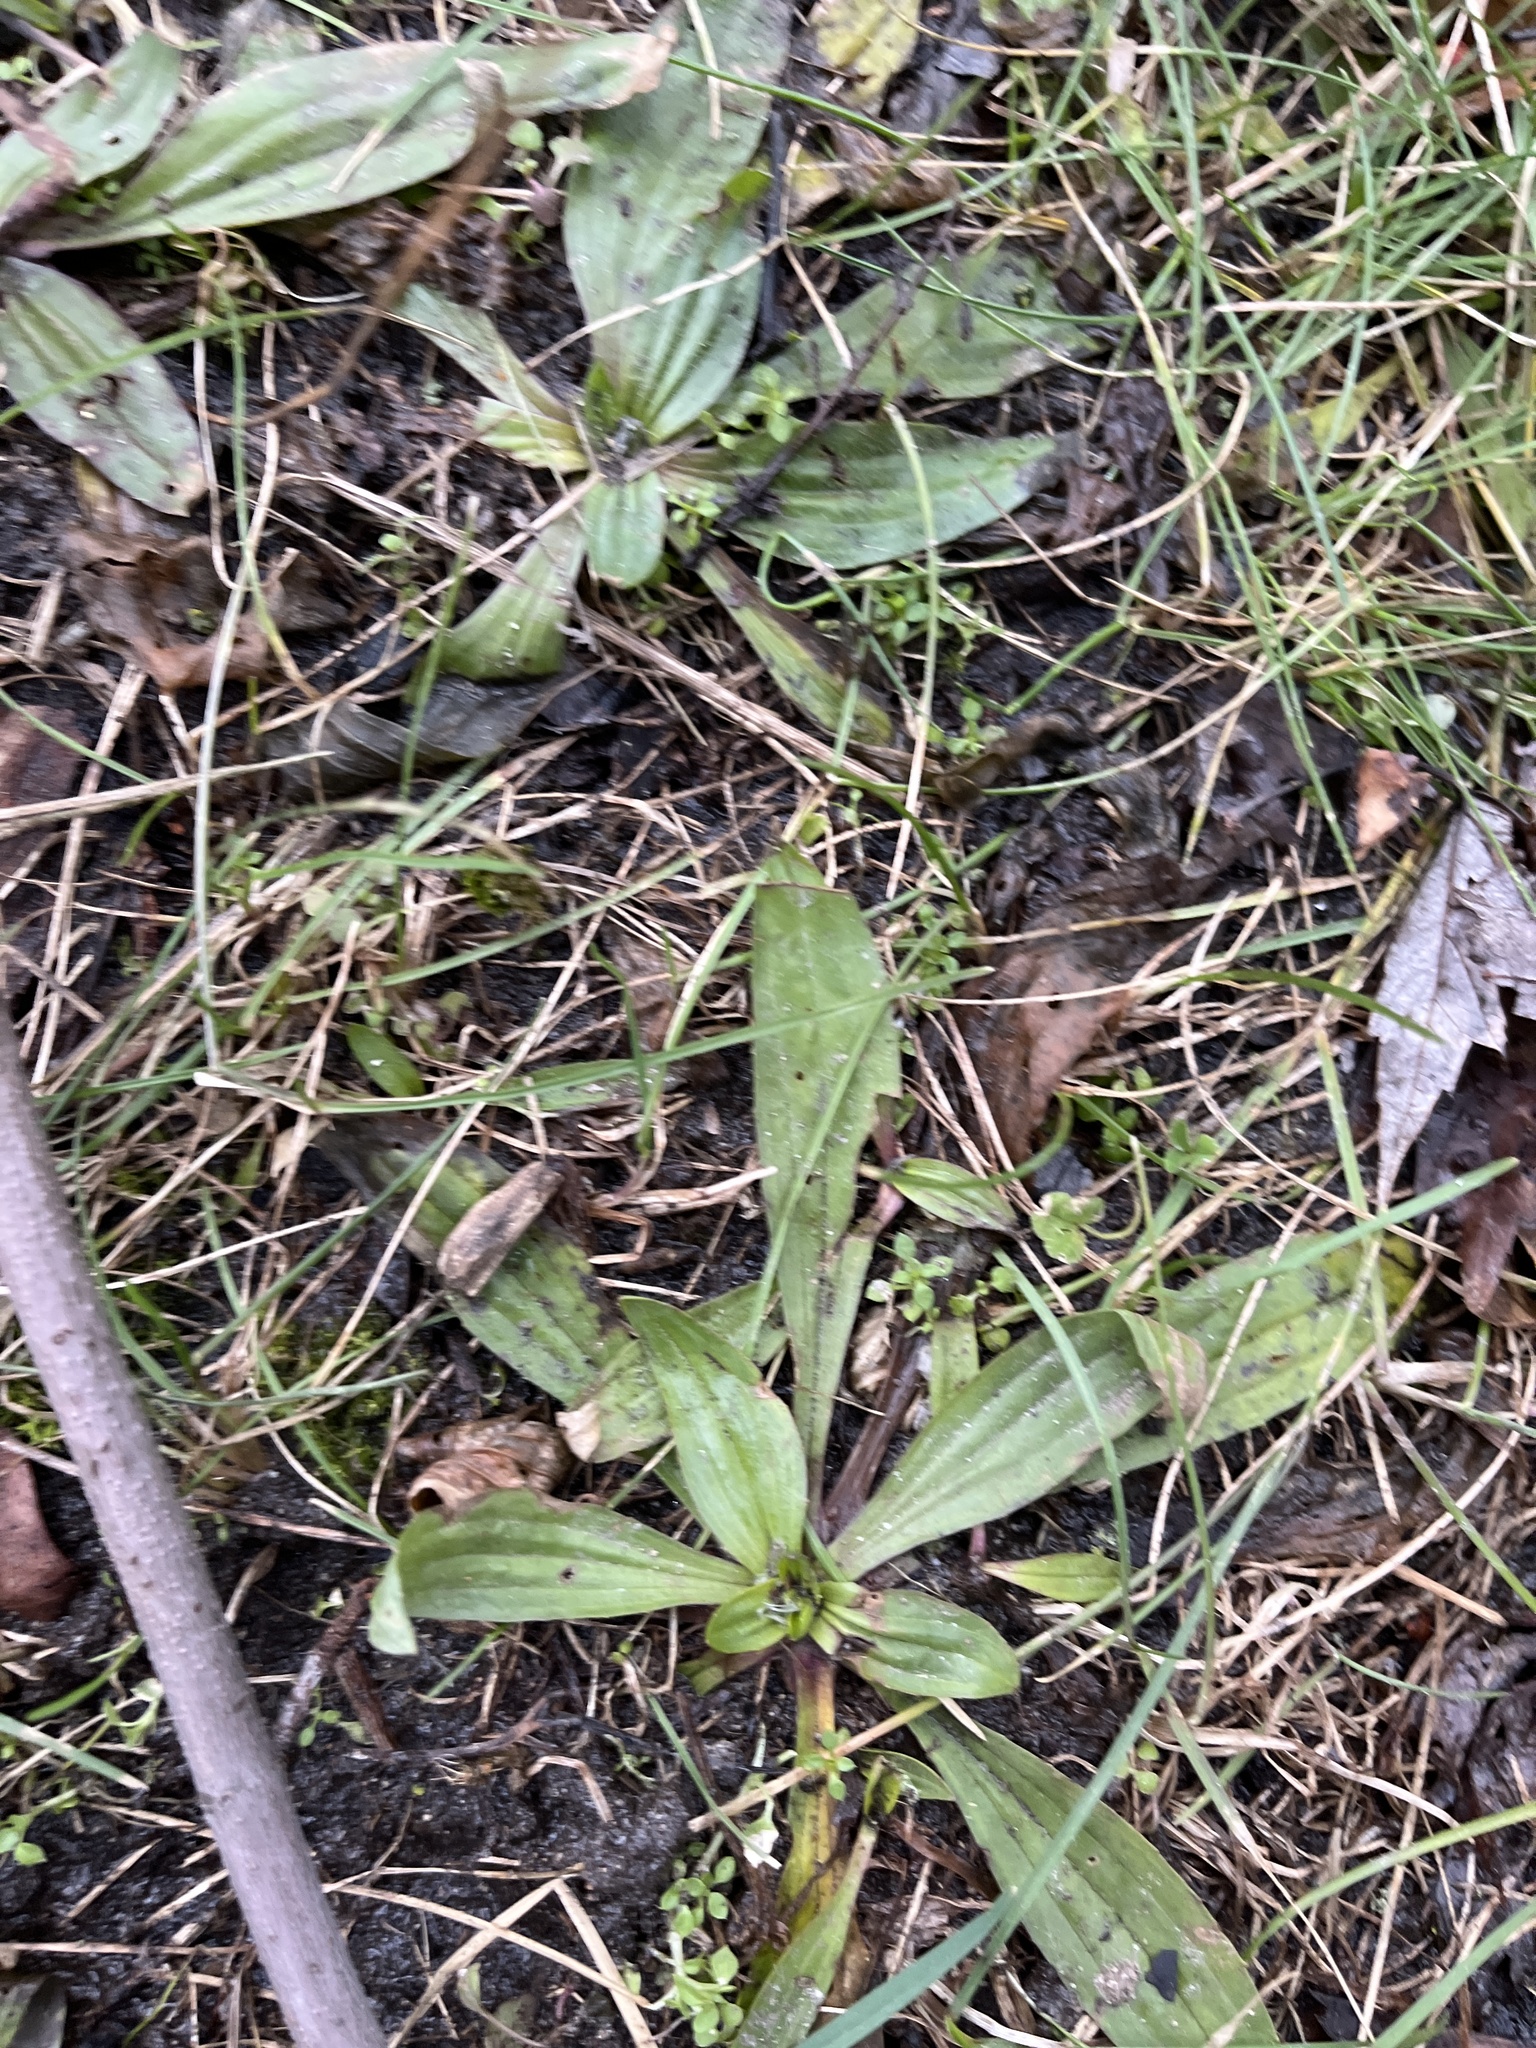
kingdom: Plantae
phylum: Tracheophyta
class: Magnoliopsida
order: Lamiales
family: Plantaginaceae
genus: Plantago
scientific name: Plantago lanceolata
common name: Ribwort plantain
